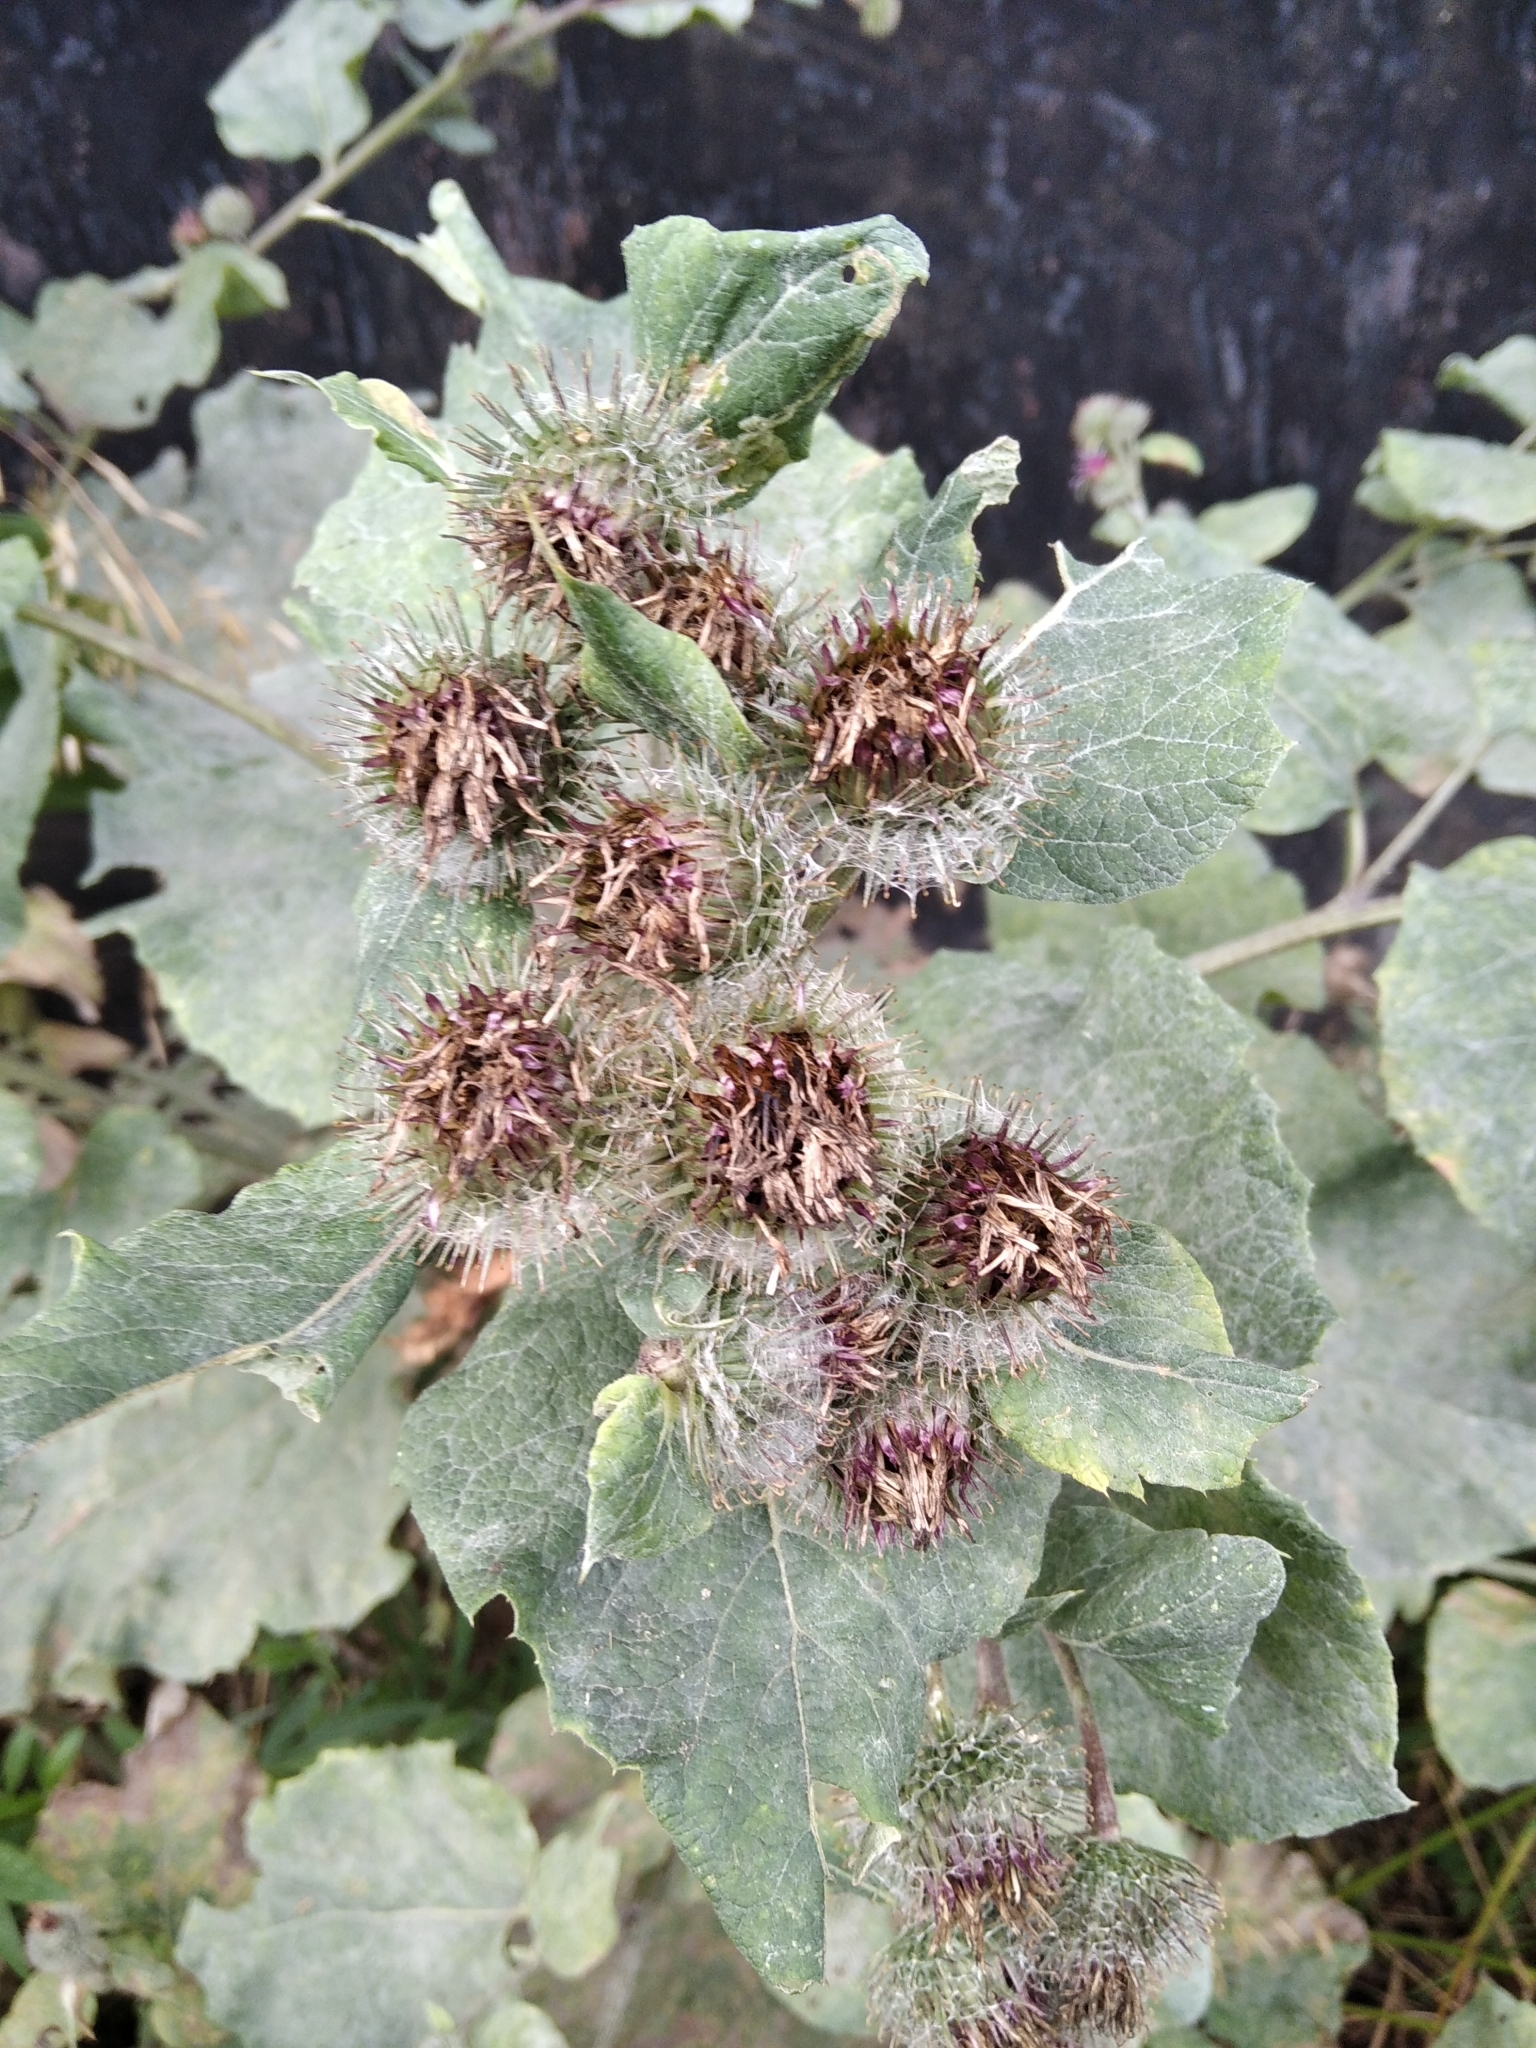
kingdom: Plantae
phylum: Tracheophyta
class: Magnoliopsida
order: Asterales
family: Asteraceae
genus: Arctium
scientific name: Arctium tomentosum
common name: Woolly burdock
